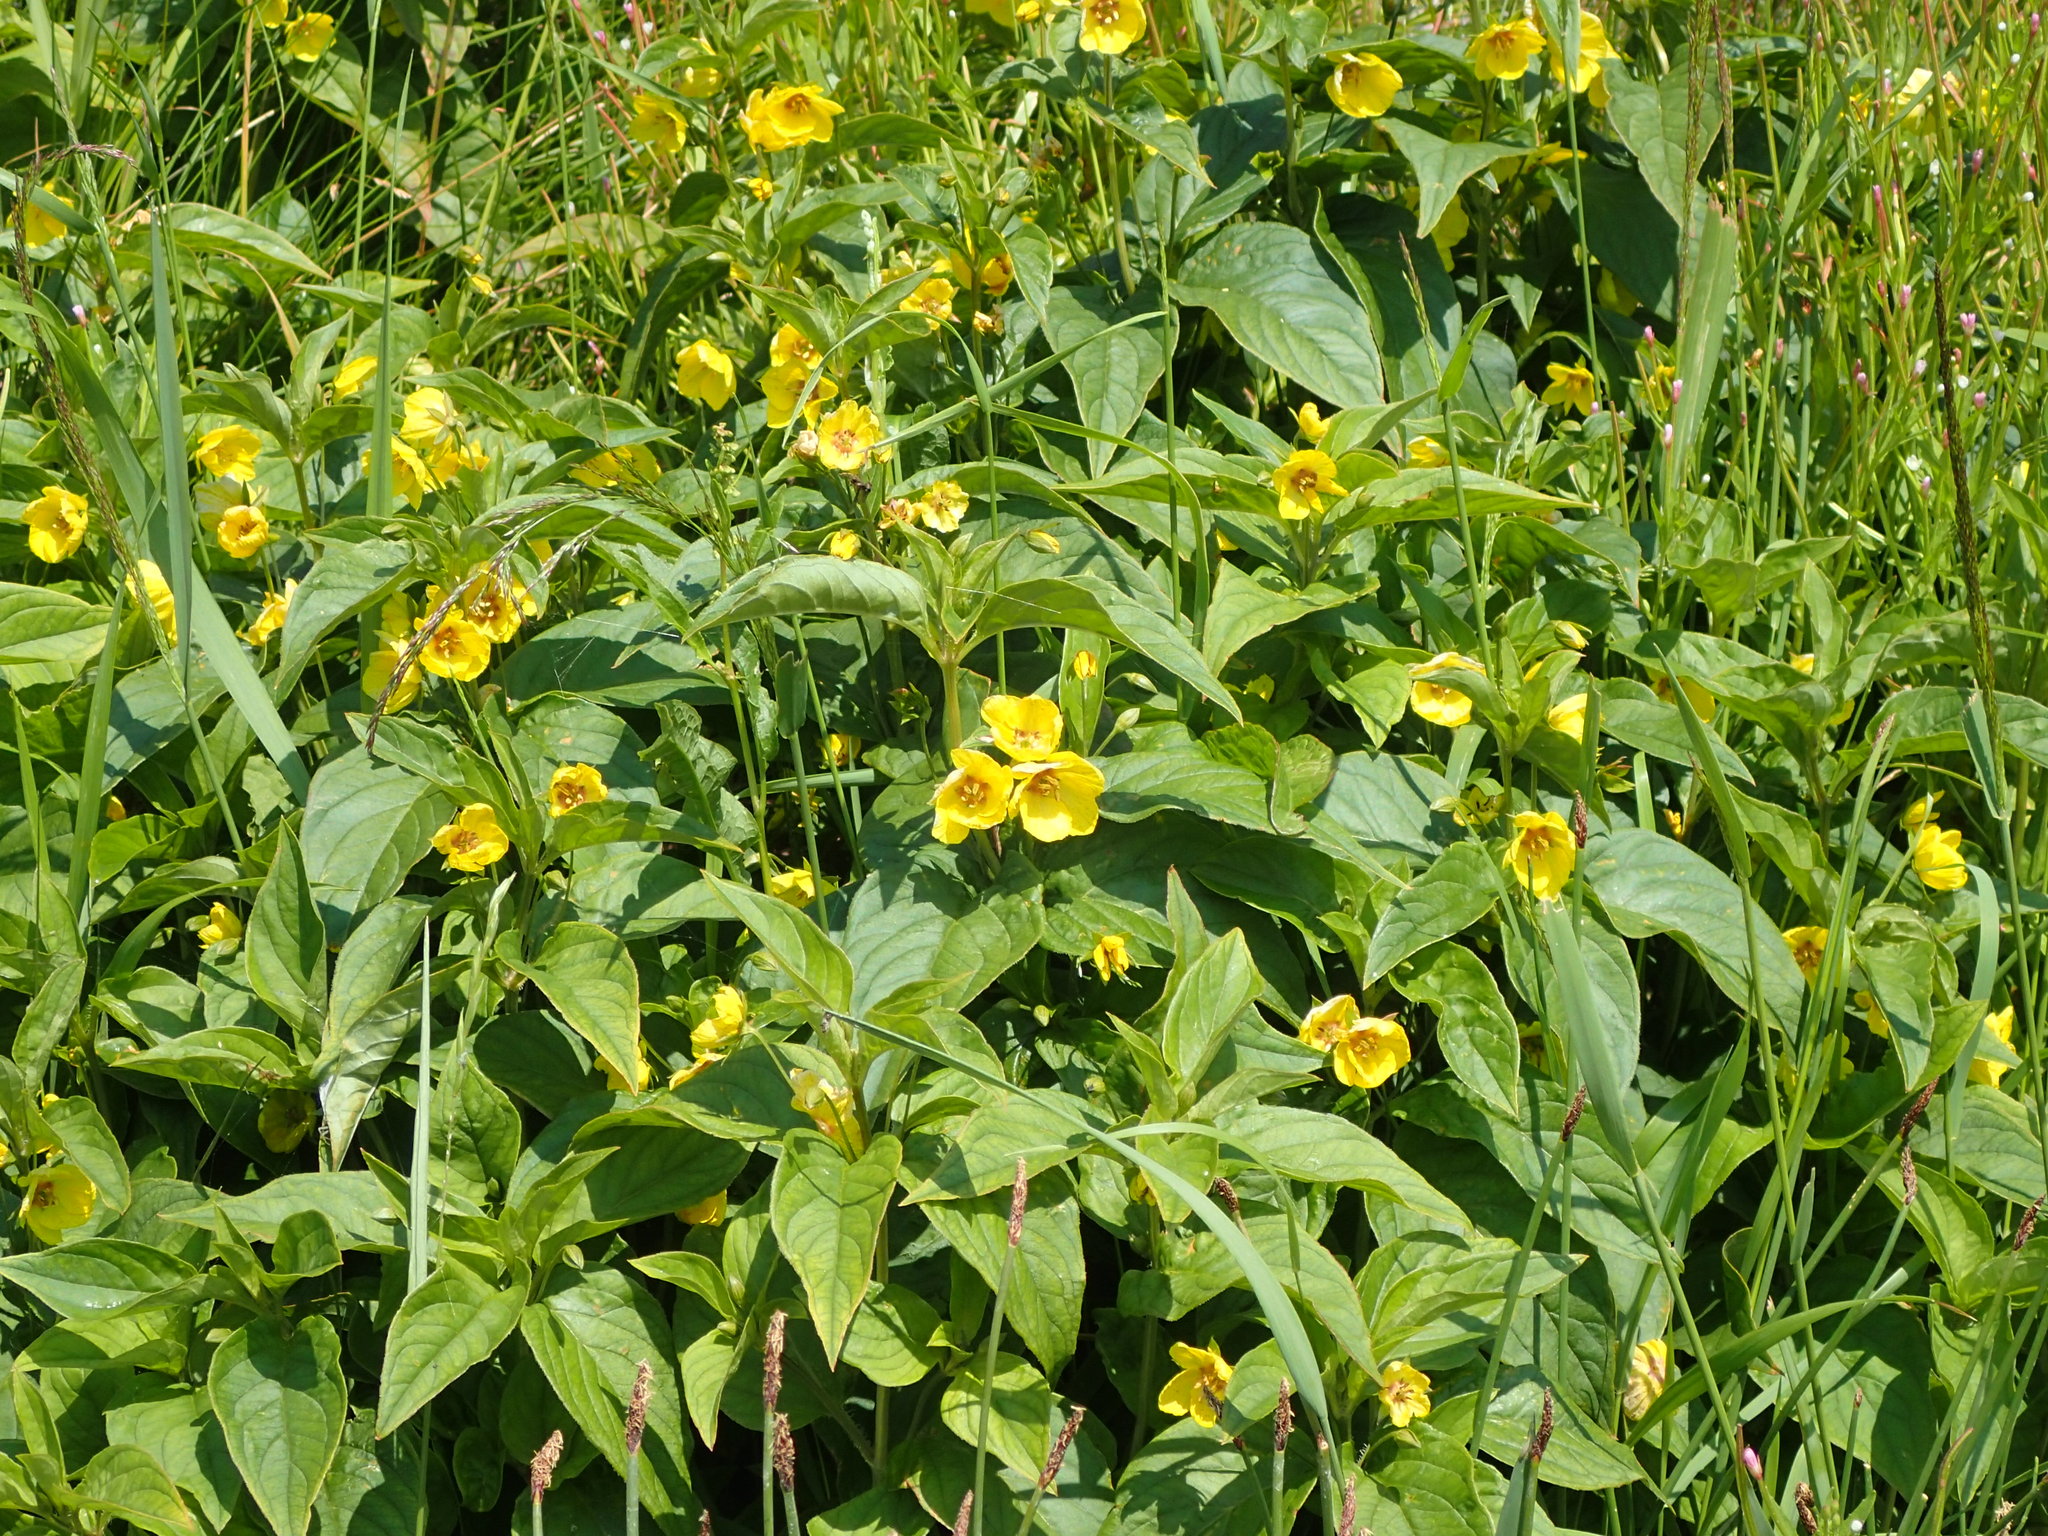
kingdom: Plantae
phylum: Tracheophyta
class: Magnoliopsida
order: Ericales
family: Primulaceae
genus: Lysimachia
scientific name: Lysimachia ciliata
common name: Fringed loosestrife
